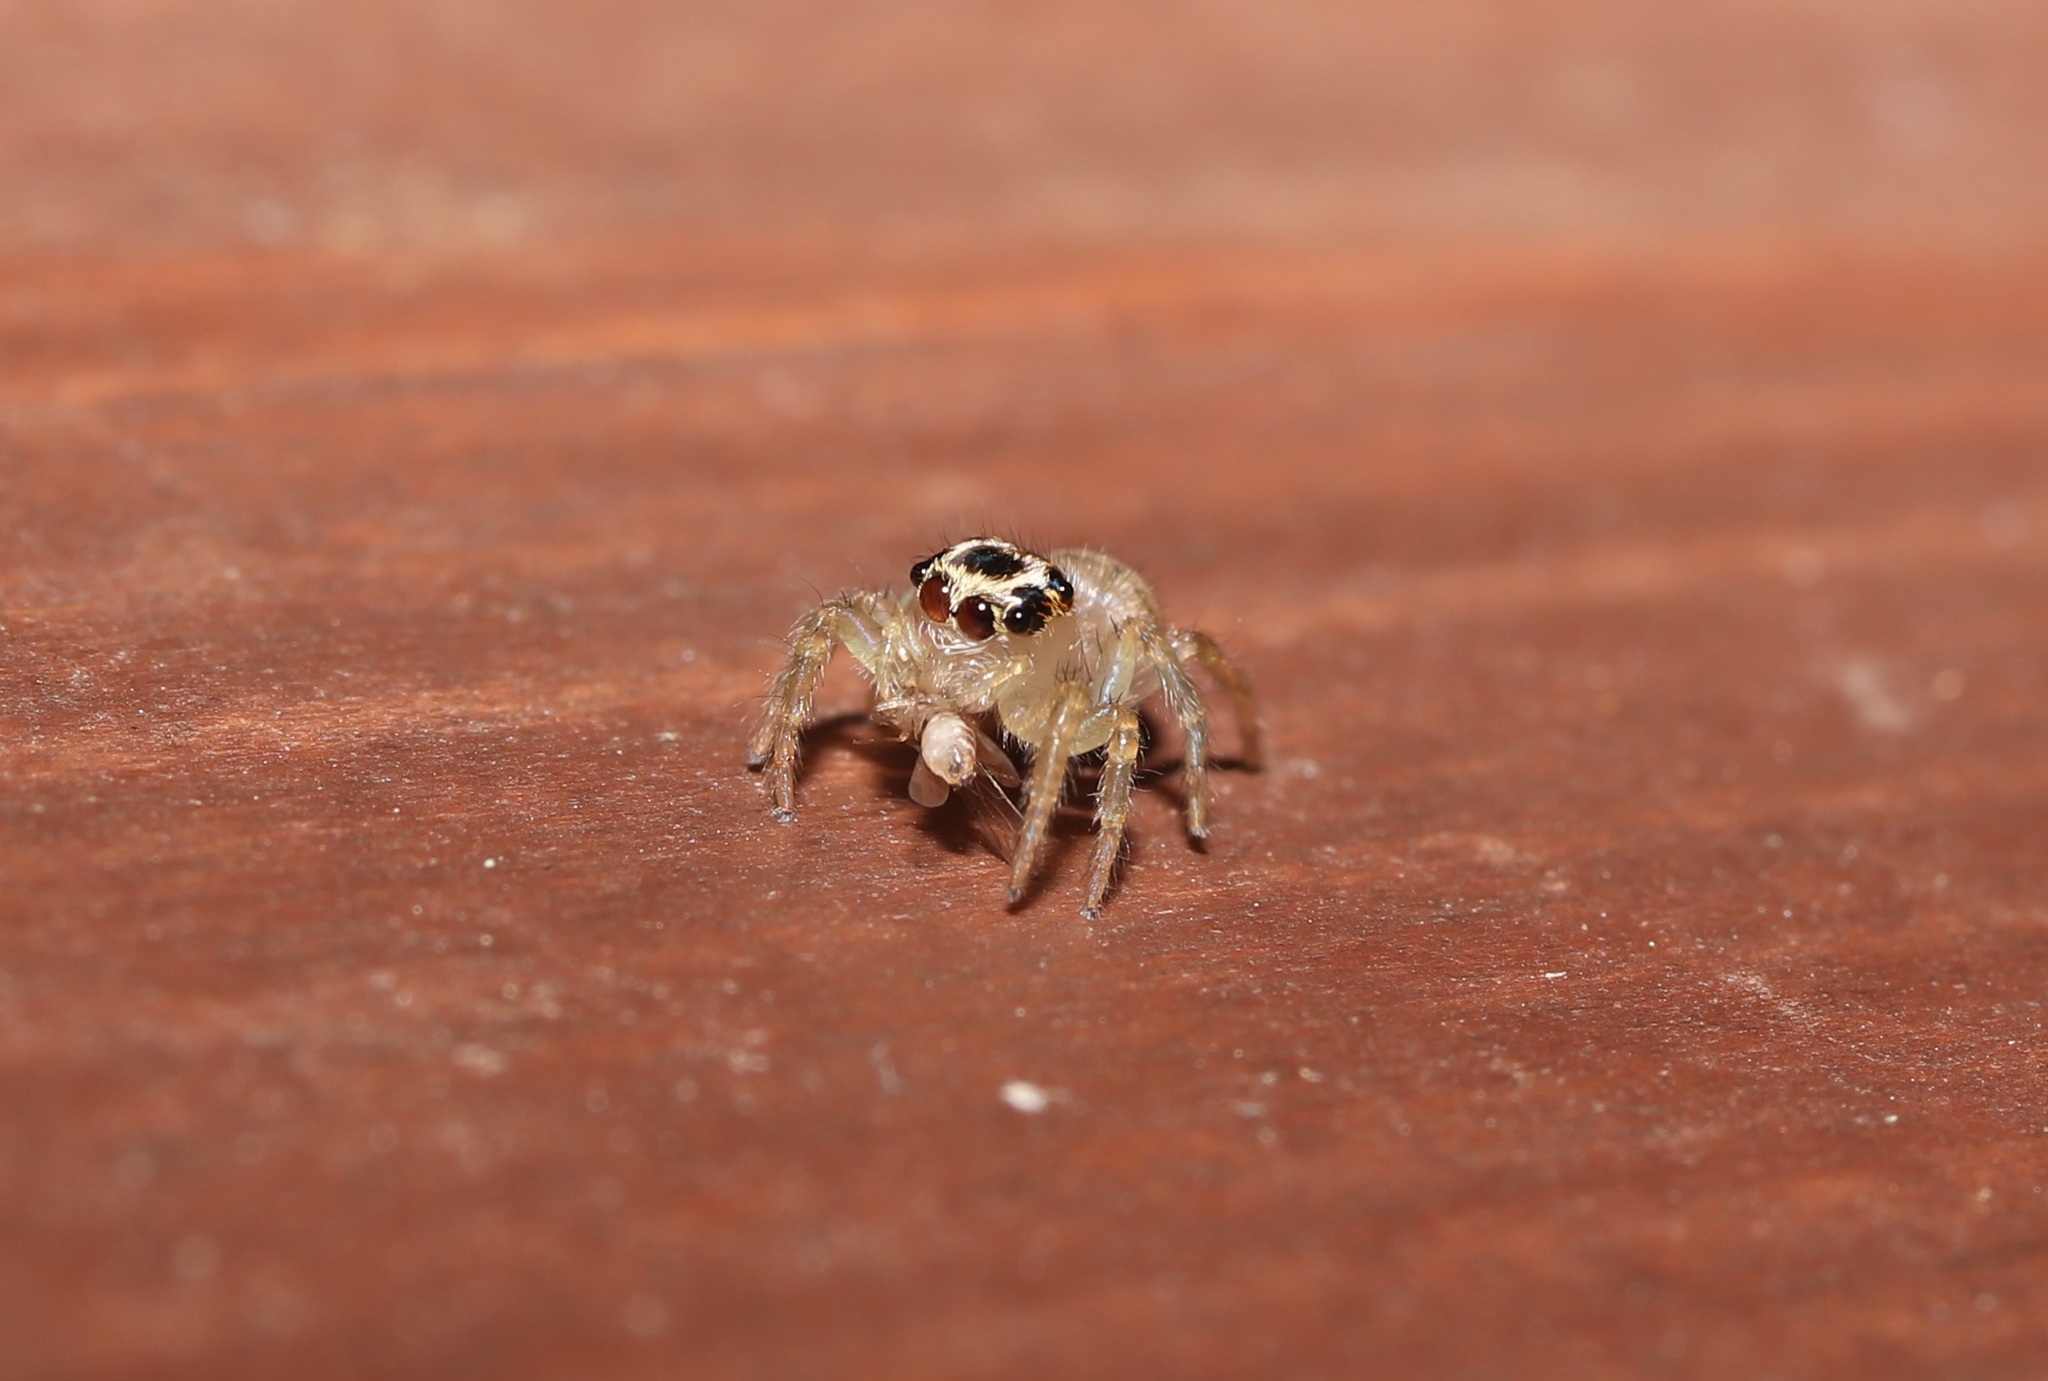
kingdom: Animalia
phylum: Arthropoda
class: Arachnida
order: Araneae
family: Salticidae
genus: Plexippoides
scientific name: Plexippoides doenitzi
